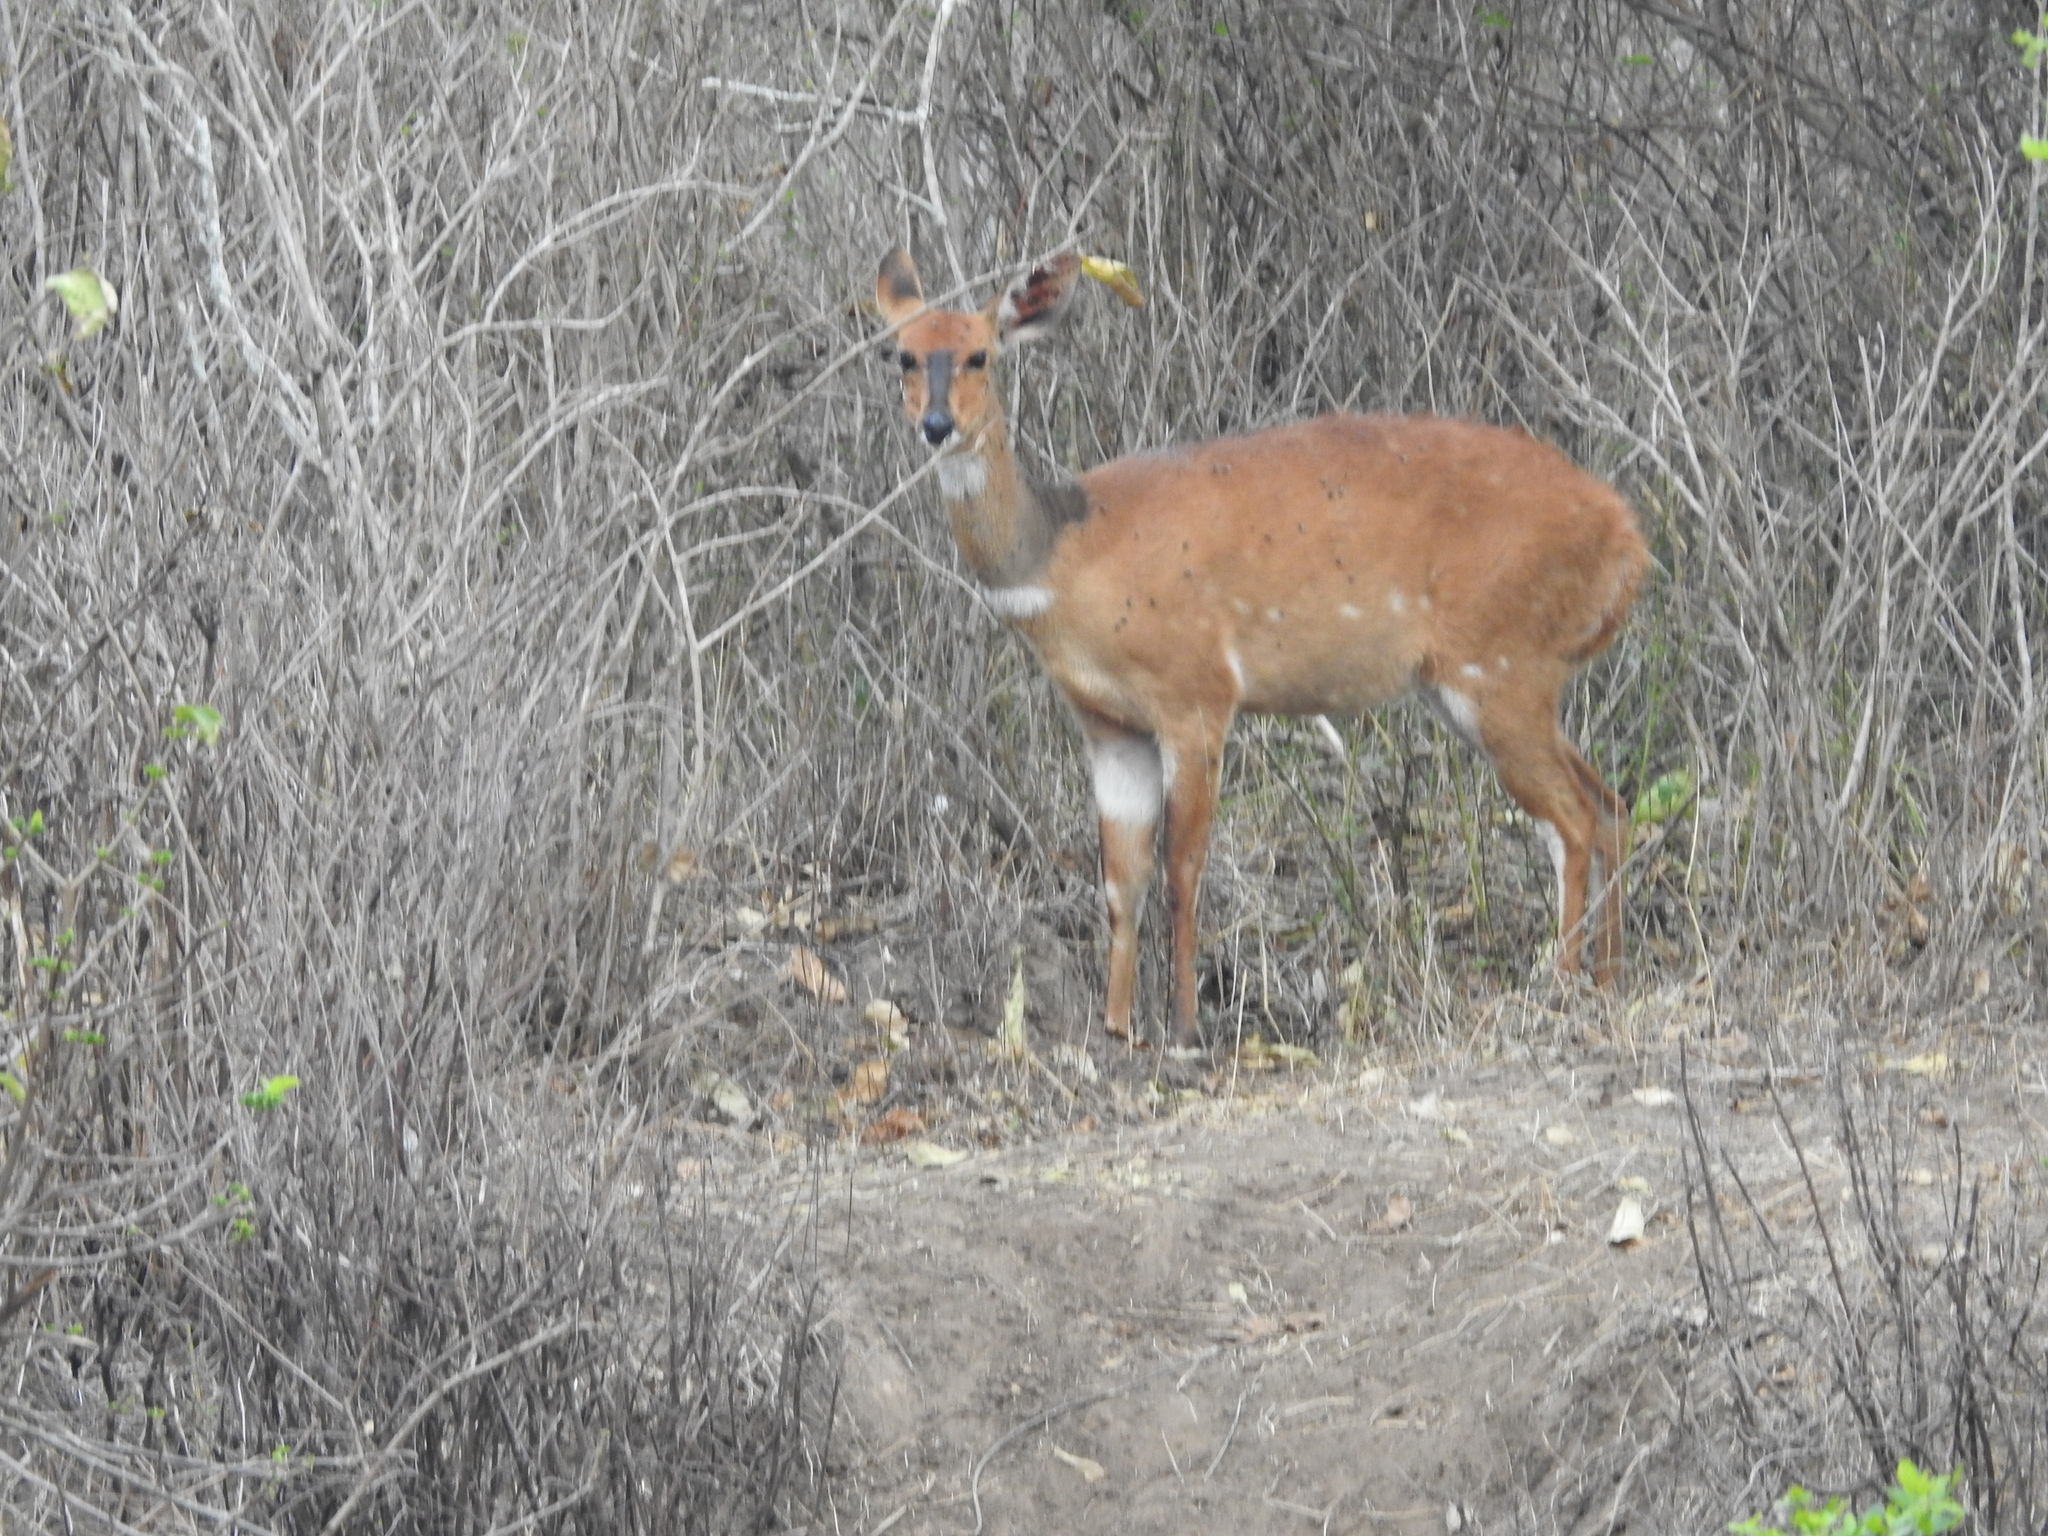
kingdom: Animalia
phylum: Chordata
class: Mammalia
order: Artiodactyla
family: Bovidae
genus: Tragelaphus
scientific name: Tragelaphus scriptus
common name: Bushbuck
